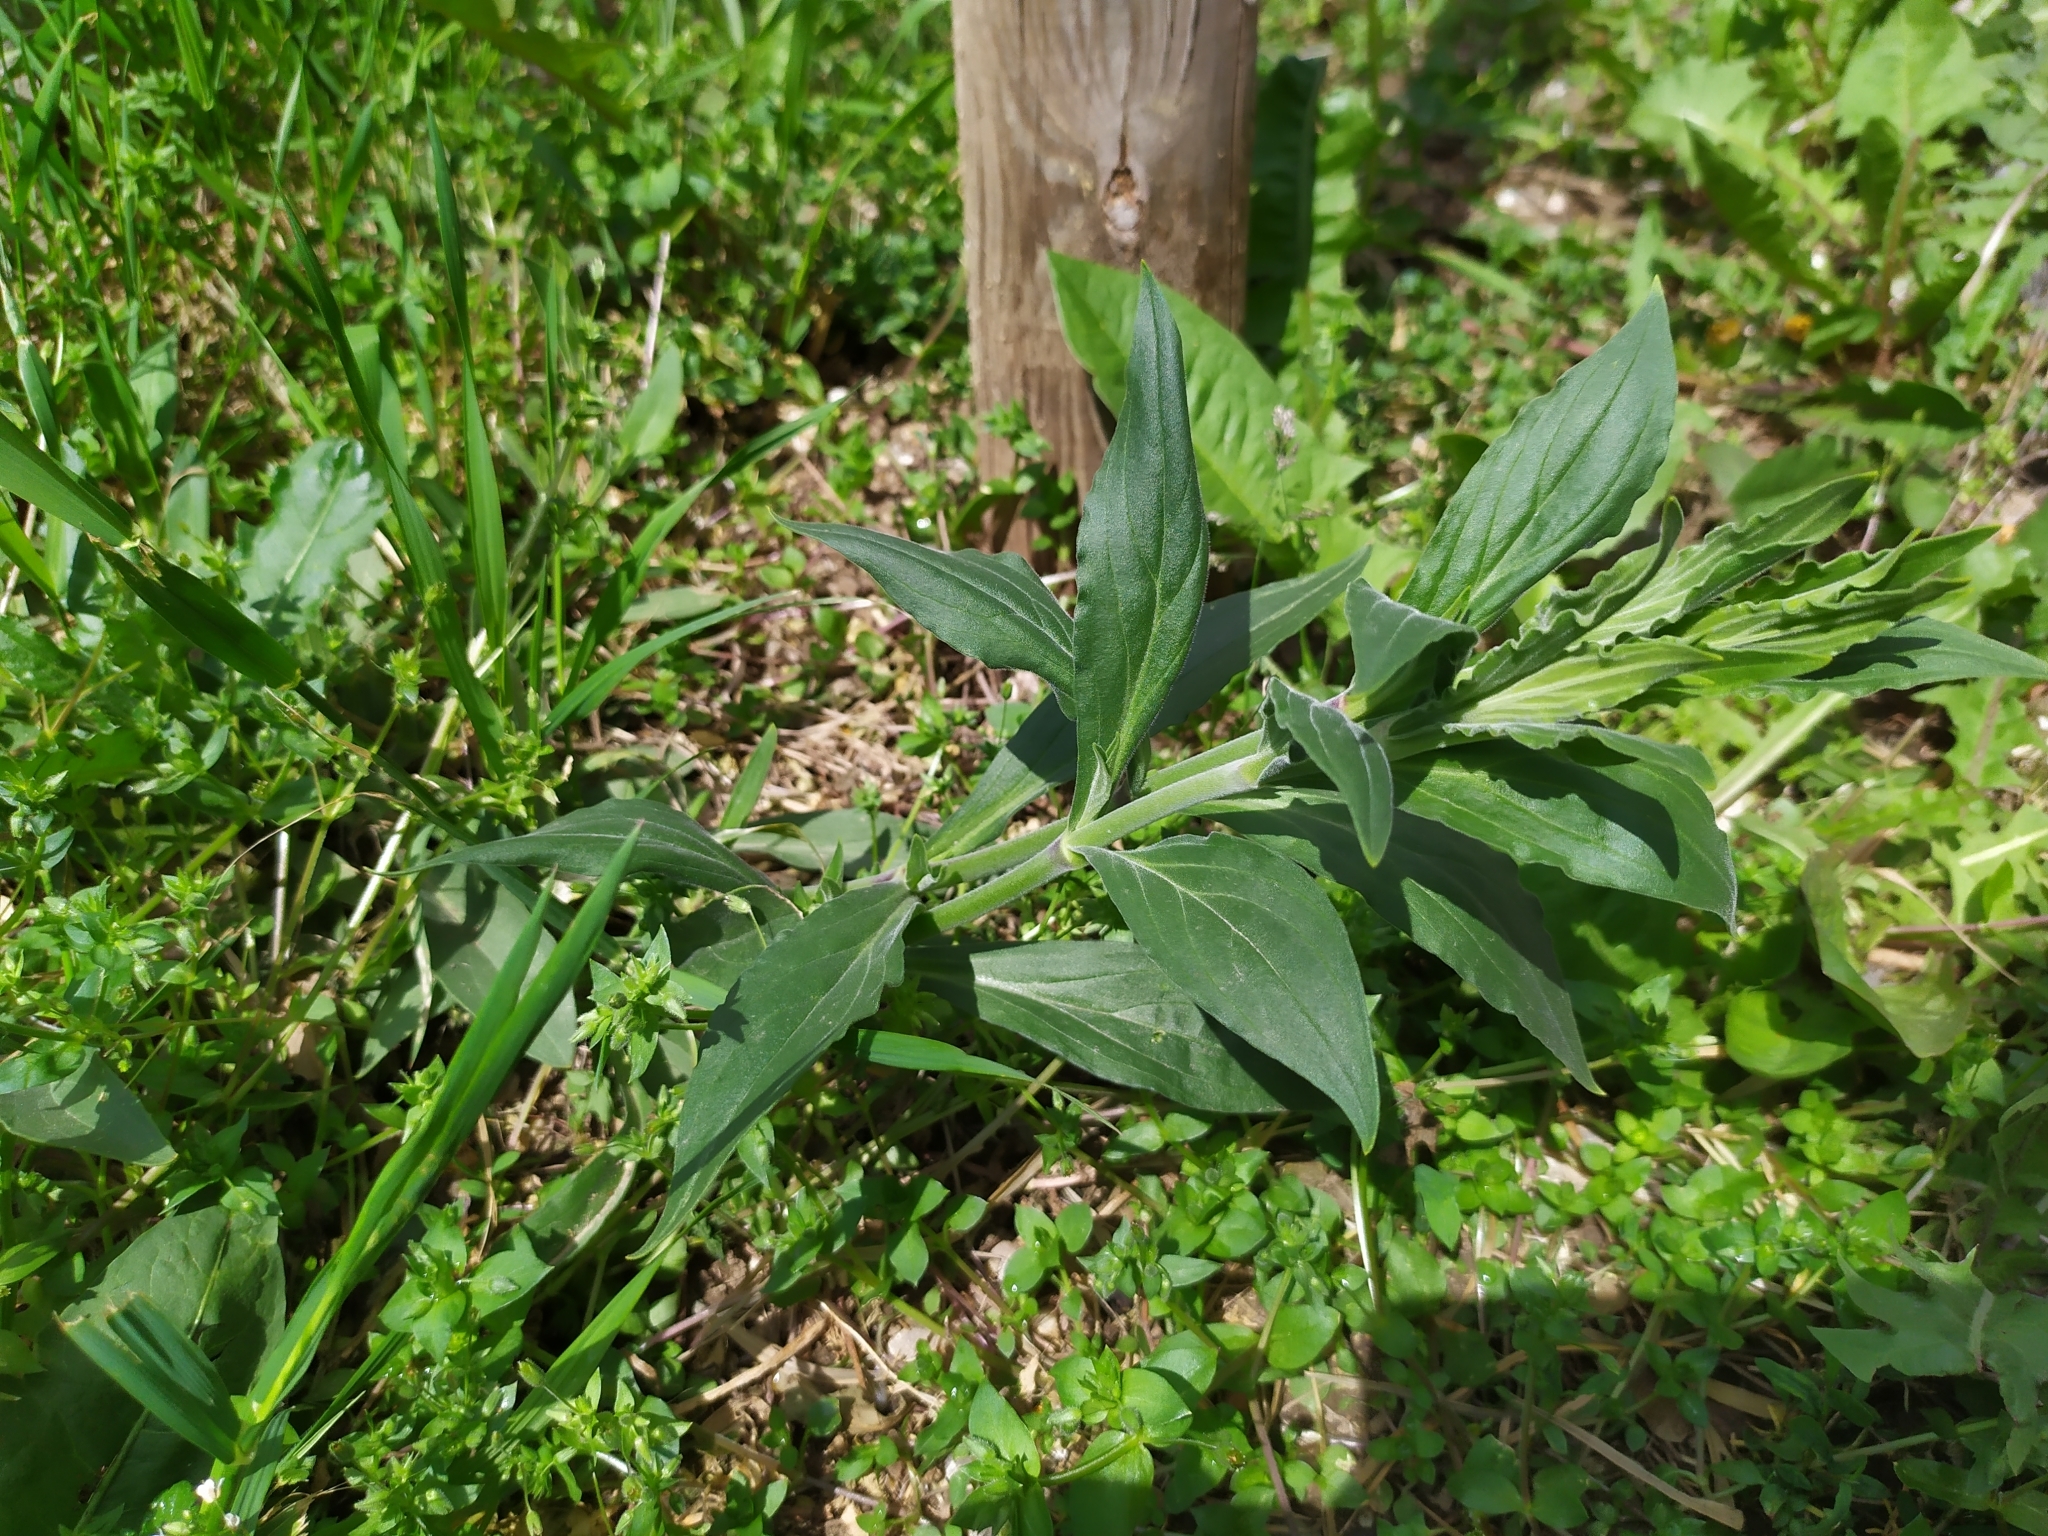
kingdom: Plantae
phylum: Tracheophyta
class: Magnoliopsida
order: Dipsacales
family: Caprifoliaceae
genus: Centranthus
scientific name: Centranthus ruber
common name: Red valerian
